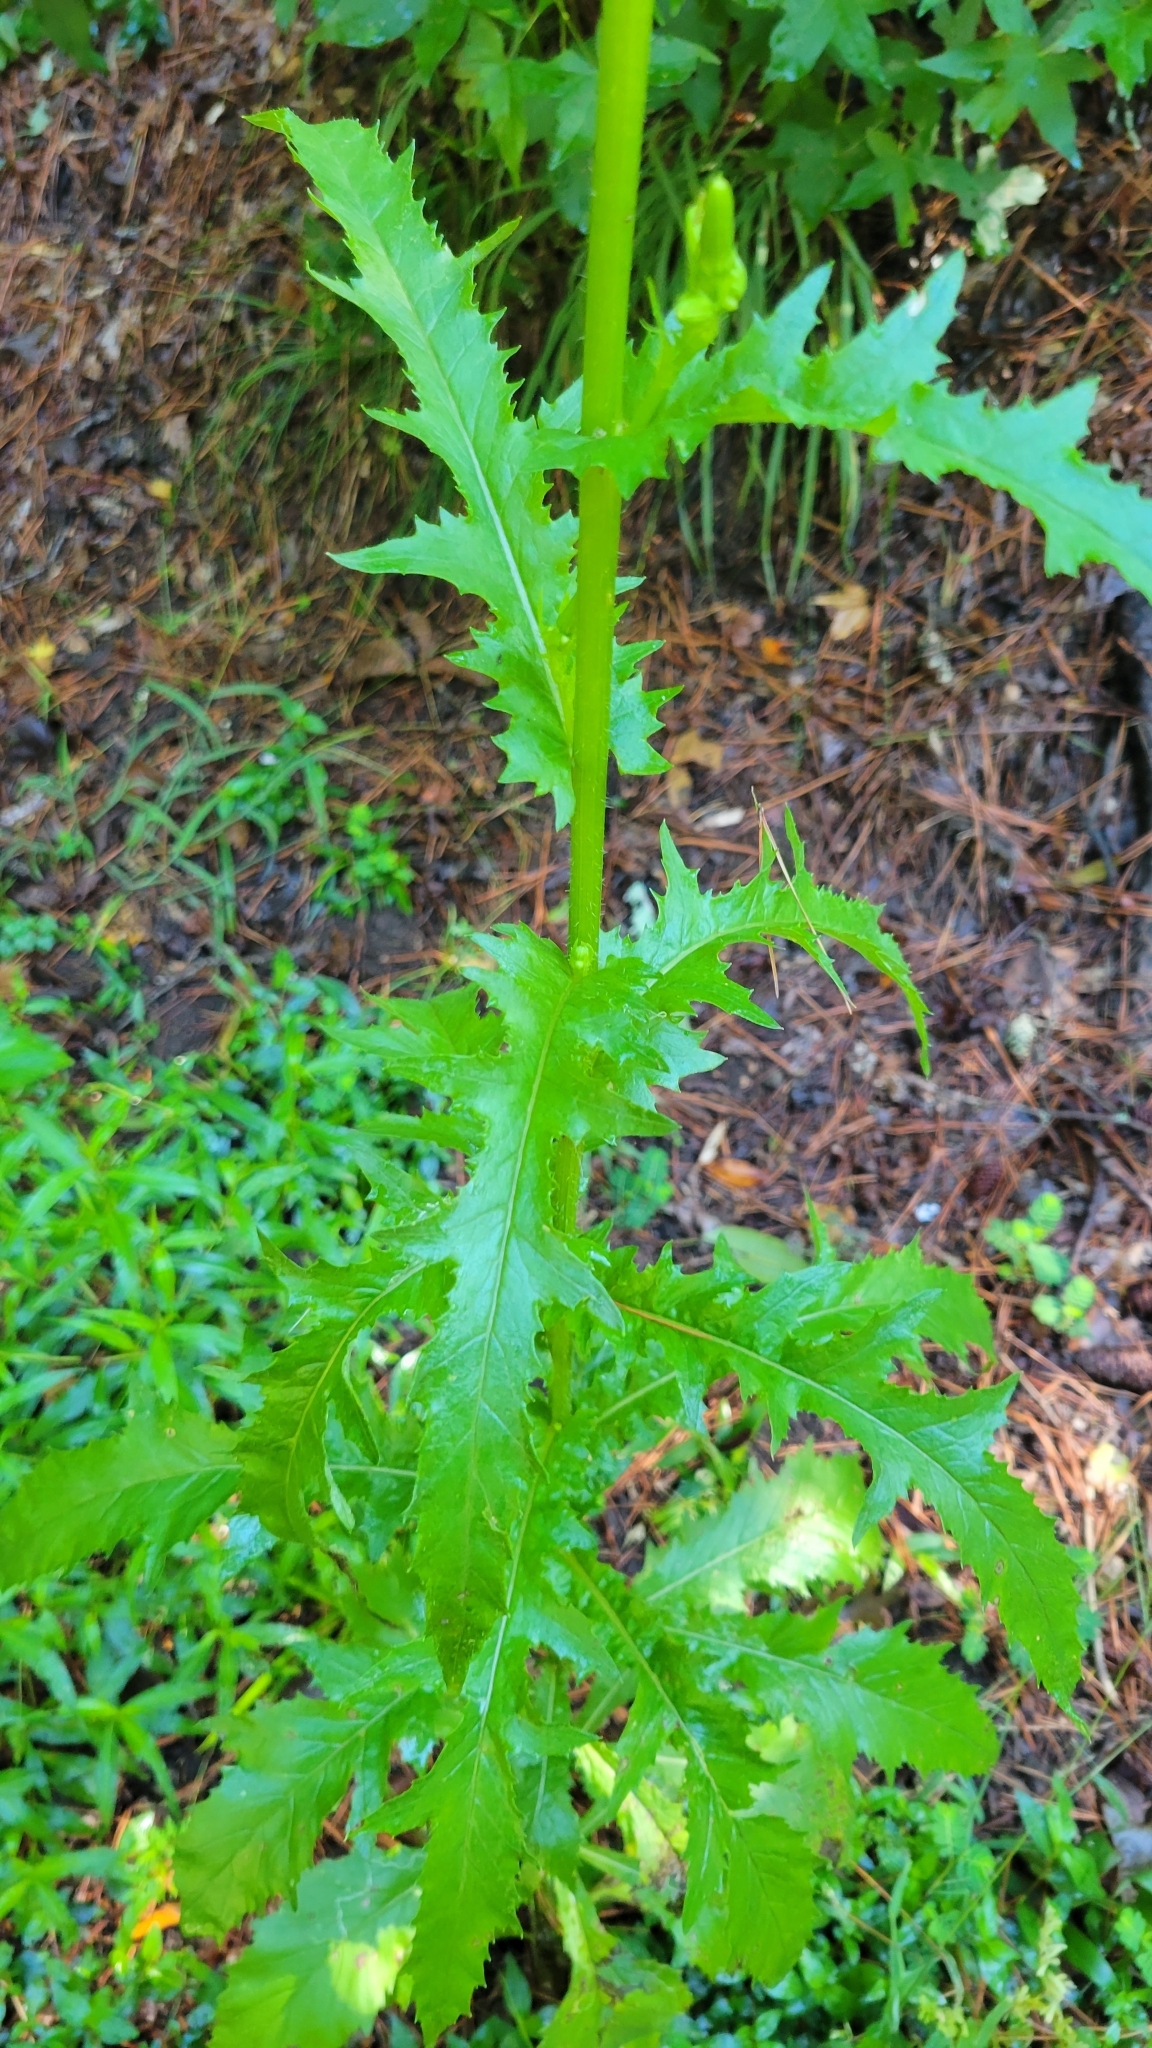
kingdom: Plantae
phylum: Tracheophyta
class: Magnoliopsida
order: Asterales
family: Asteraceae
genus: Erechtites
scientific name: Erechtites hieraciifolius
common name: American burnweed
